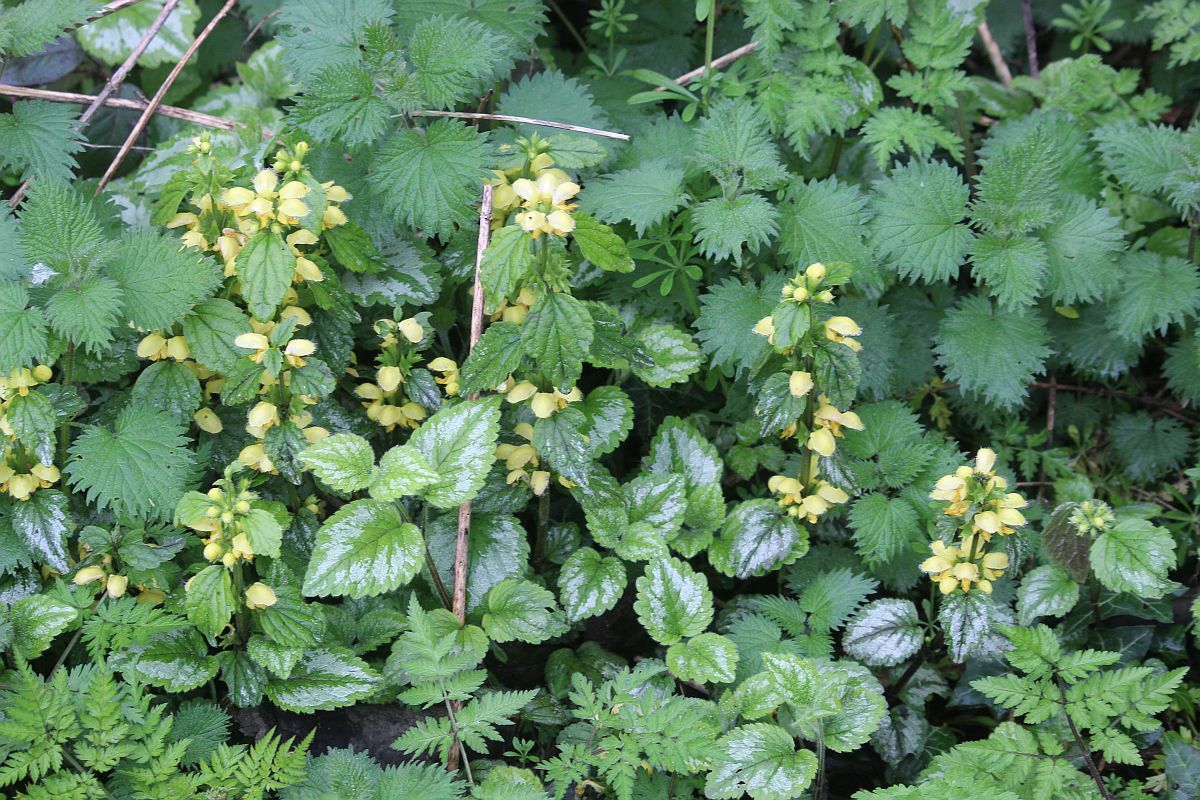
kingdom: Plantae
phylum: Tracheophyta
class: Magnoliopsida
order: Lamiales
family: Lamiaceae
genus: Lamium
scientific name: Lamium galeobdolon
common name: Yellow archangel
